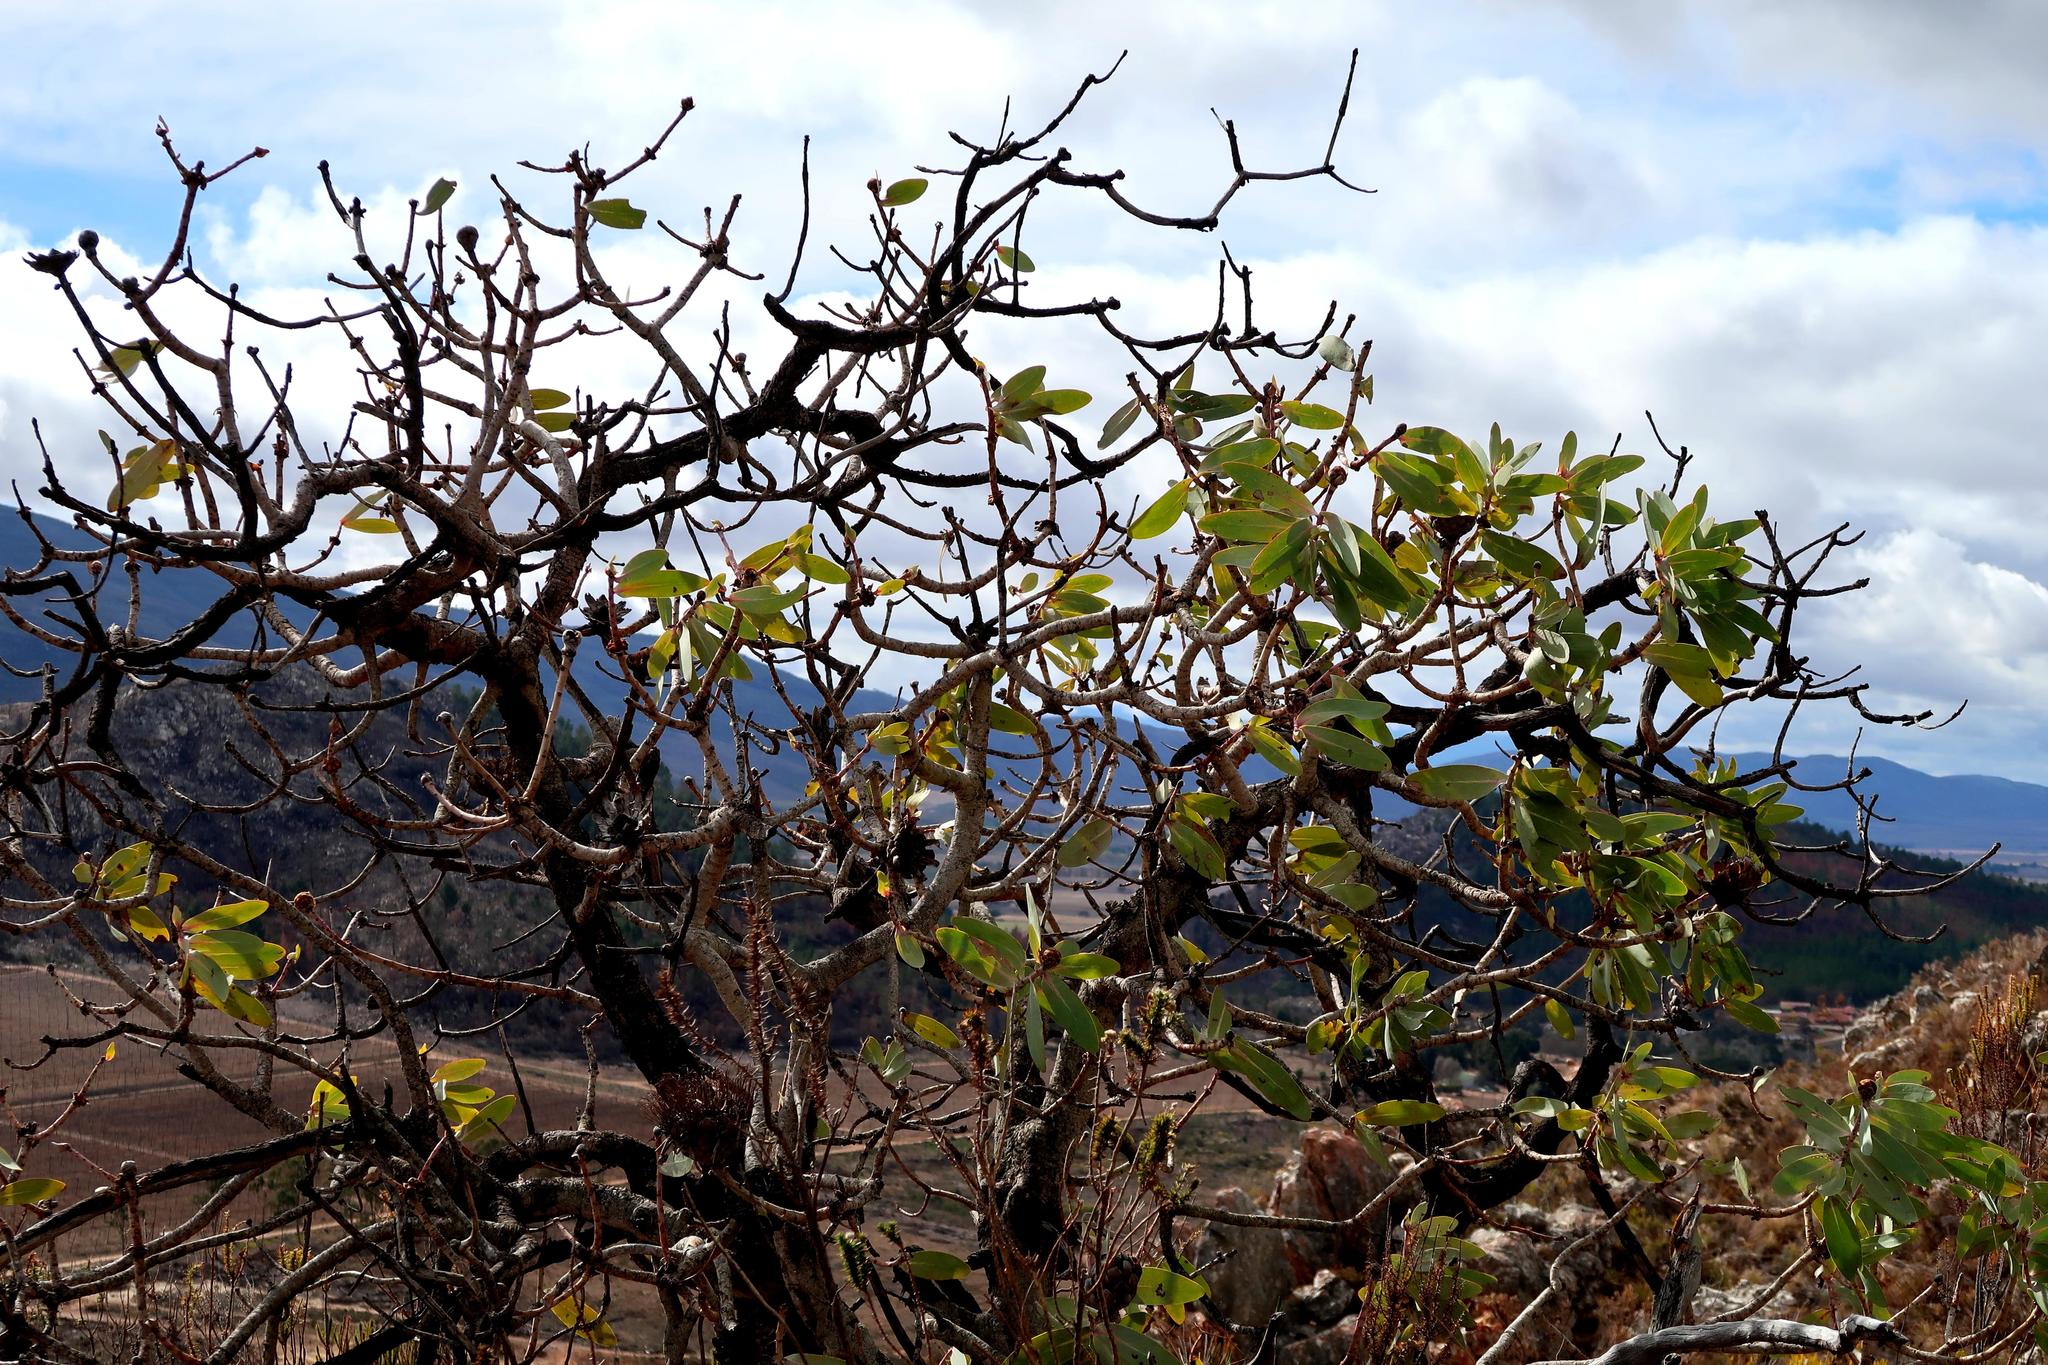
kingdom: Plantae
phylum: Tracheophyta
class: Magnoliopsida
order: Proteales
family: Proteaceae
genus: Protea
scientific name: Protea nitida
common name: Tree protea
